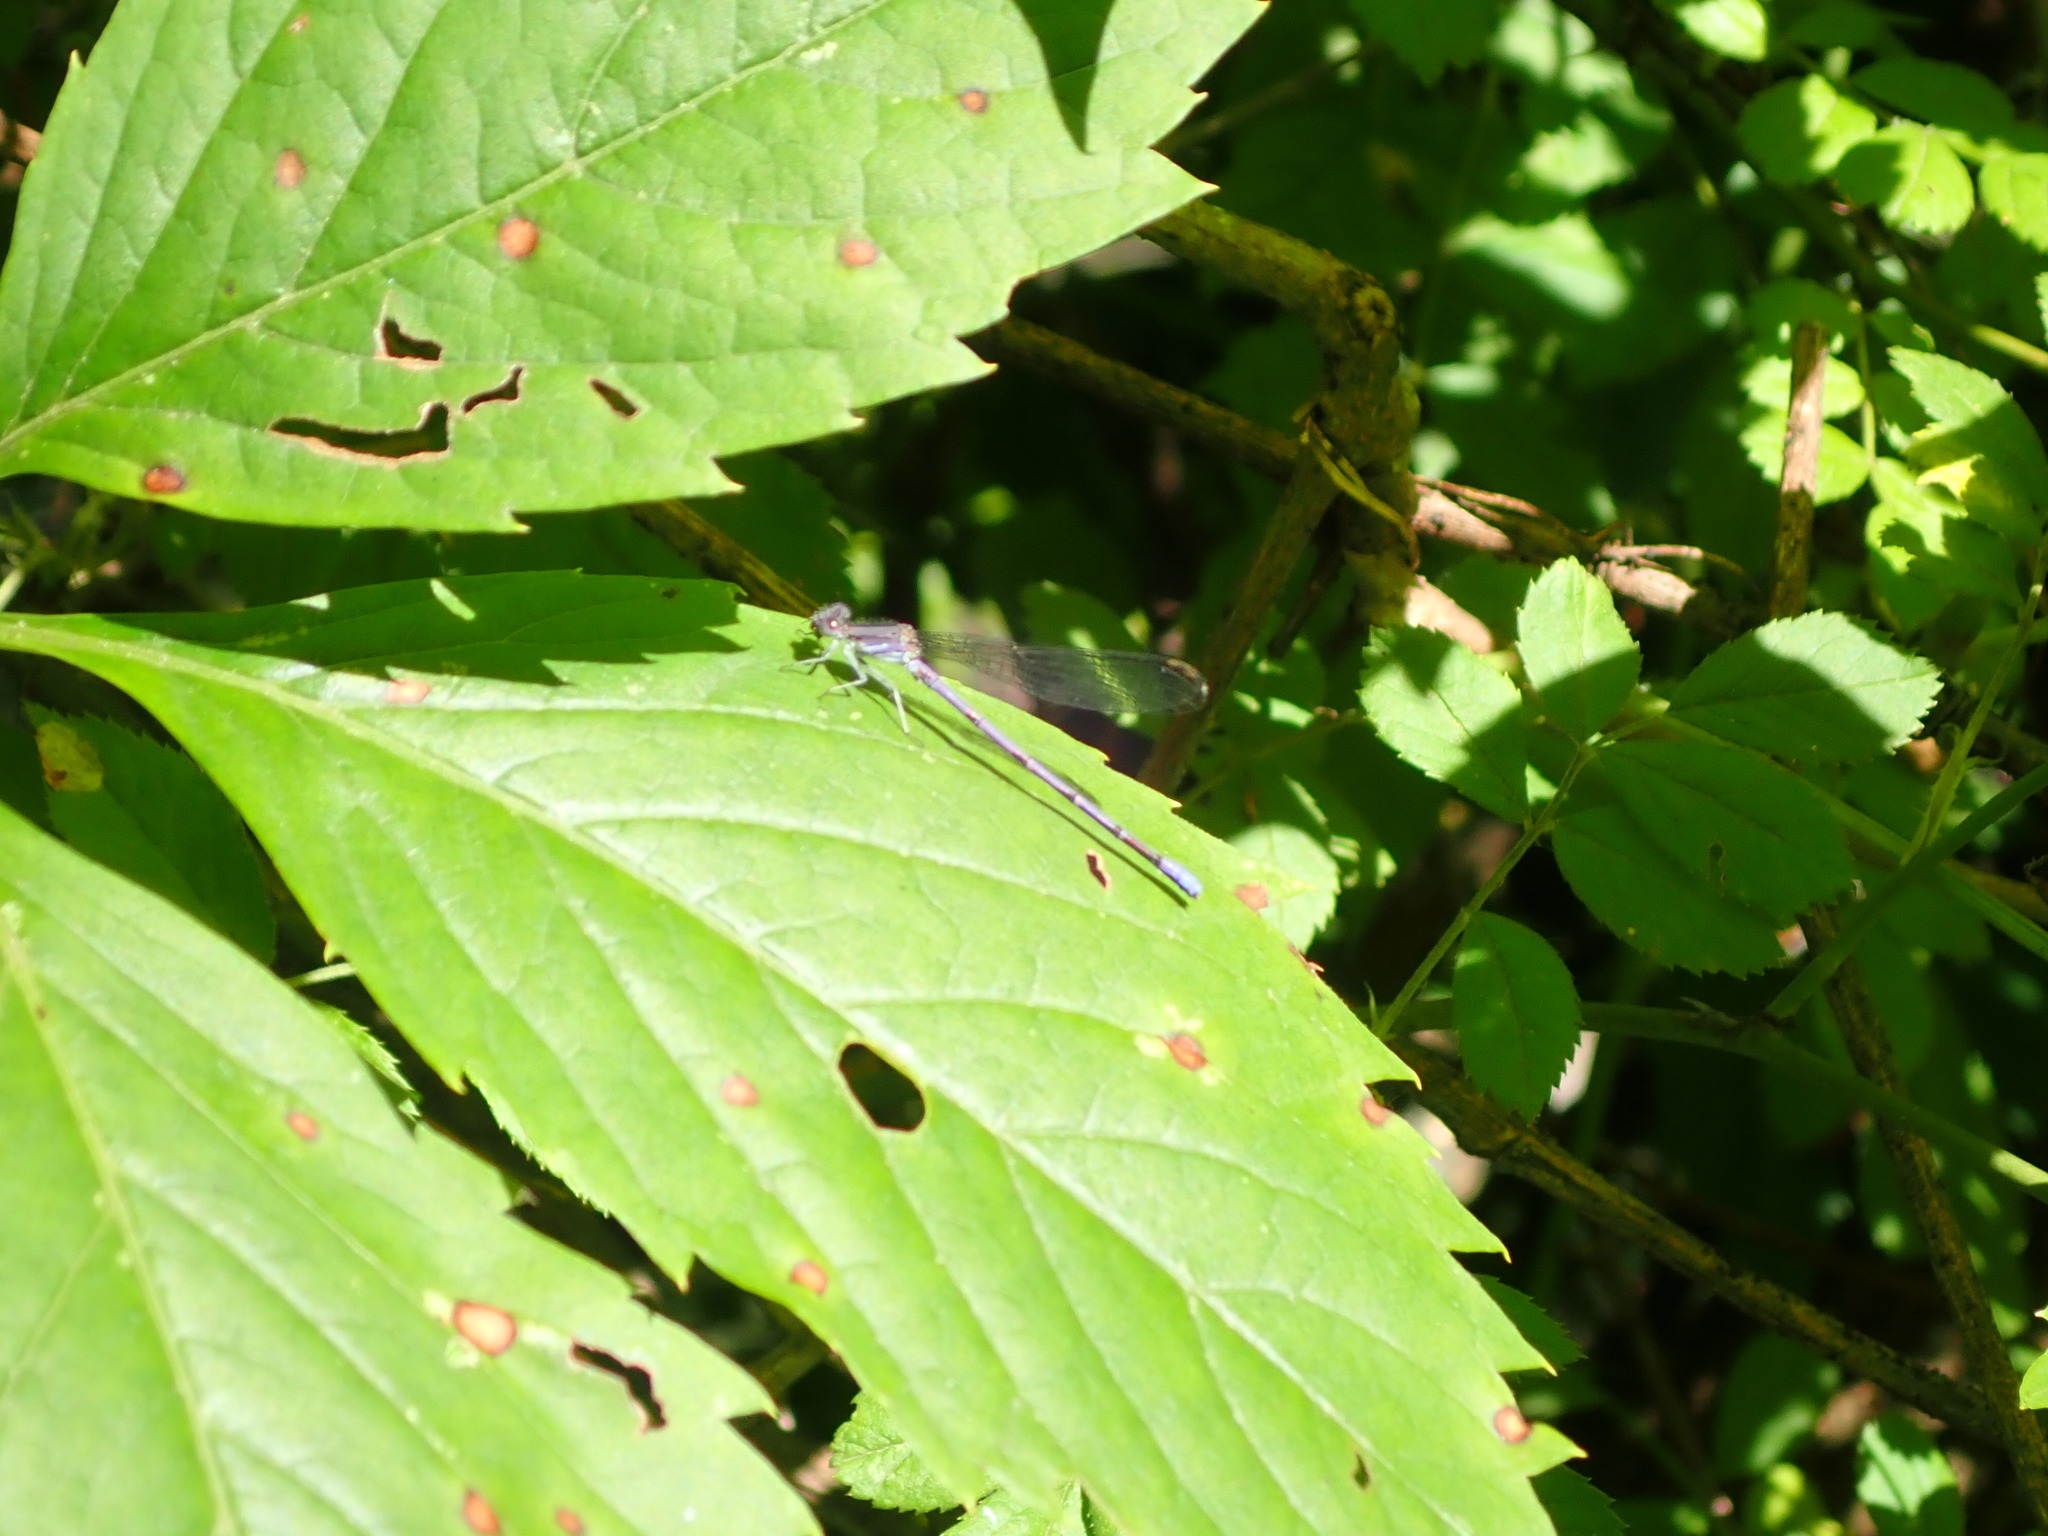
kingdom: Animalia
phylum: Arthropoda
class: Insecta
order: Odonata
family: Coenagrionidae
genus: Argia
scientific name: Argia fumipennis
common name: Variable dancer
